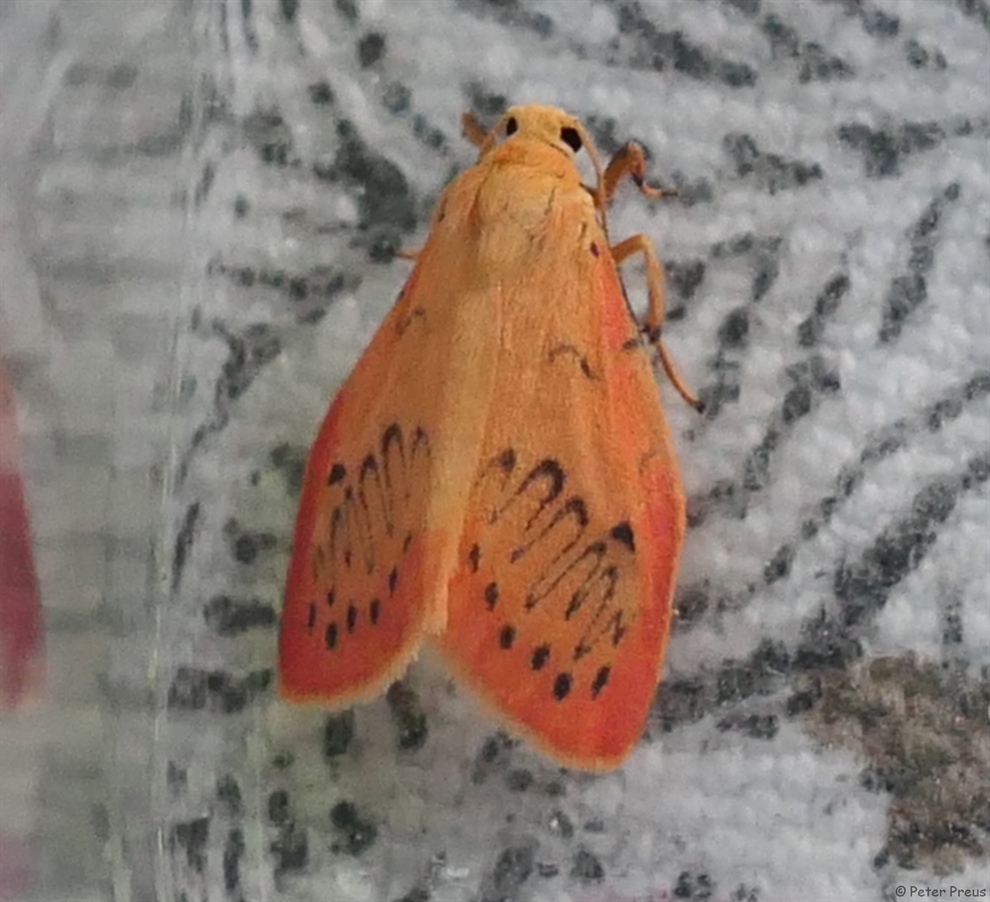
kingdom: Animalia
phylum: Arthropoda
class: Insecta
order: Lepidoptera
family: Erebidae
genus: Miltochrista
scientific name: Miltochrista miniata
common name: Rosy footman
